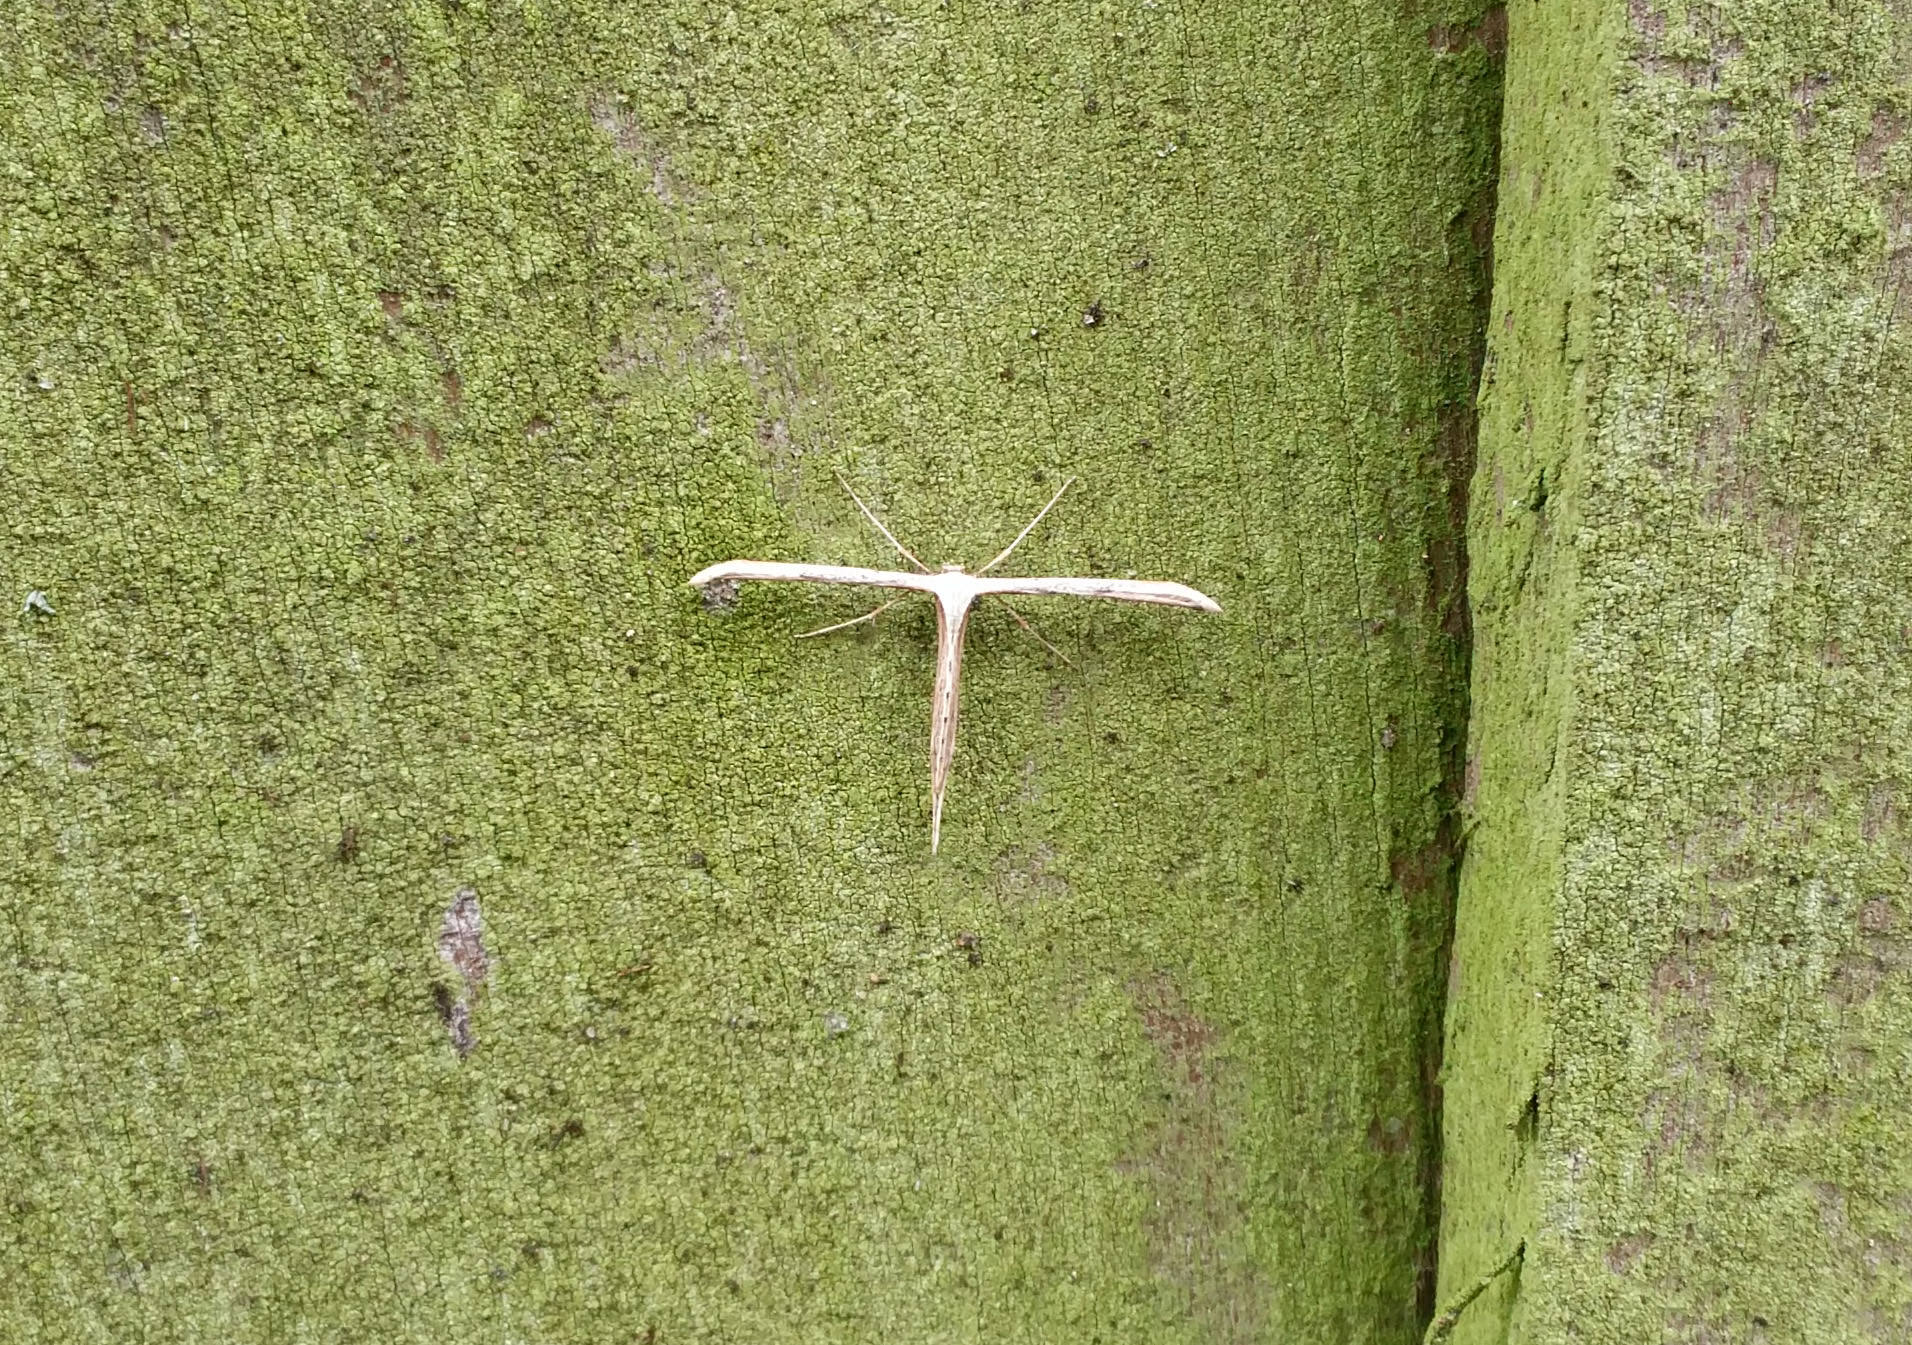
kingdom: Animalia
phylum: Arthropoda
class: Insecta
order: Lepidoptera
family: Pterophoridae
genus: Emmelina
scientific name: Emmelina monodactyla
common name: Common plume
